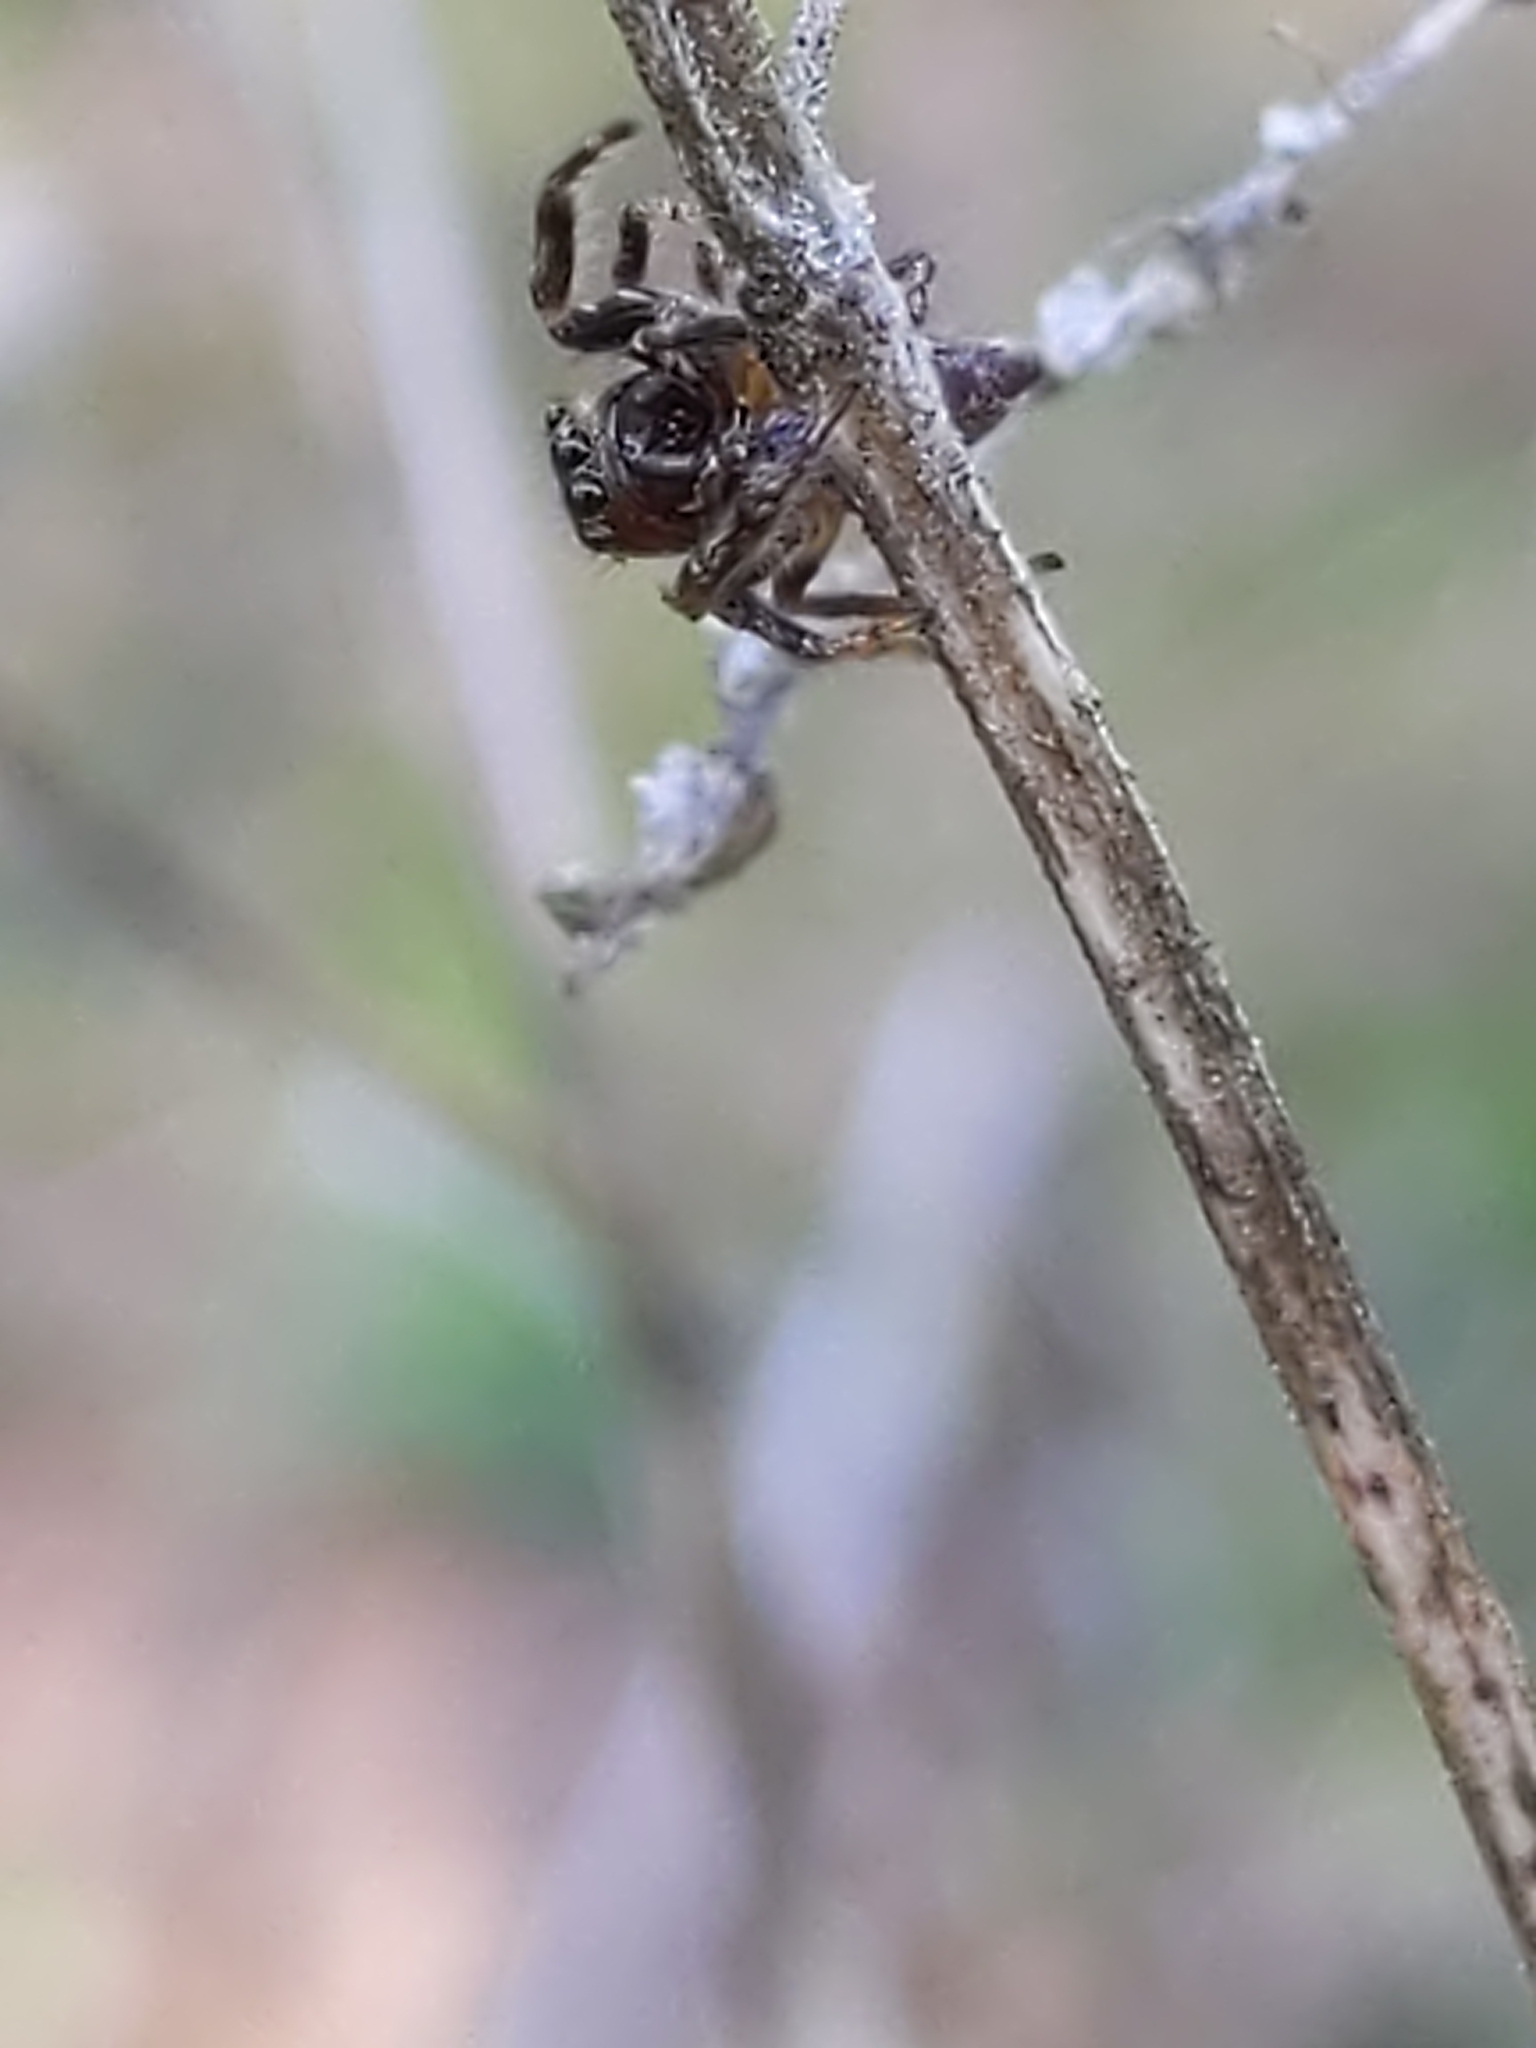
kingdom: Animalia
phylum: Arthropoda
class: Arachnida
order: Araneae
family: Salticidae
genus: Eris
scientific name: Eris
